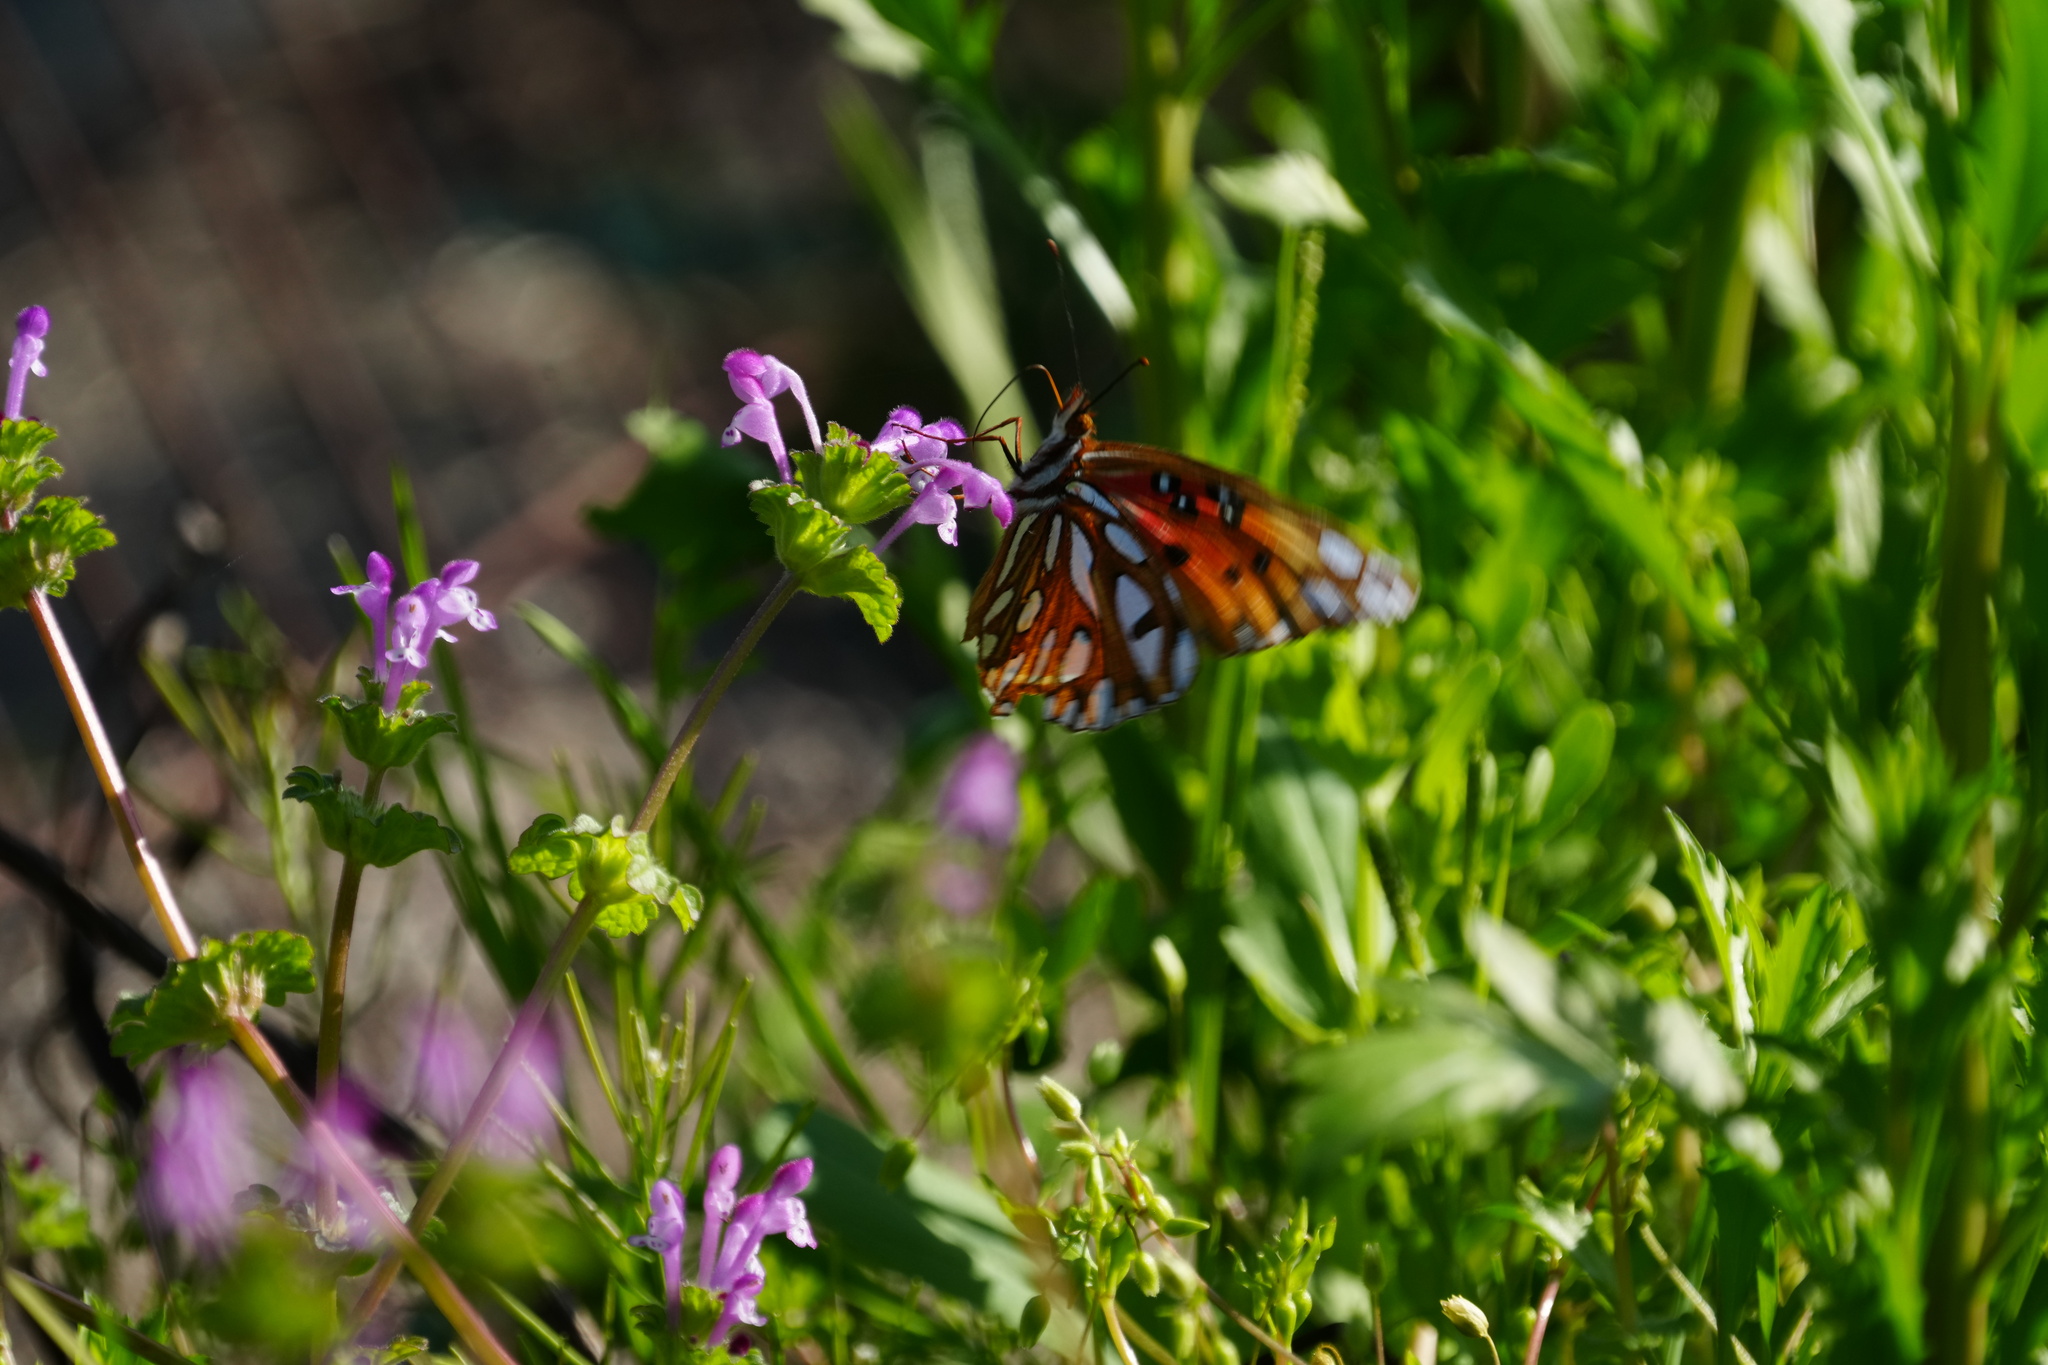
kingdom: Animalia
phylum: Arthropoda
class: Insecta
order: Lepidoptera
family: Nymphalidae
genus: Dione
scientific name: Dione vanillae
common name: Gulf fritillary
